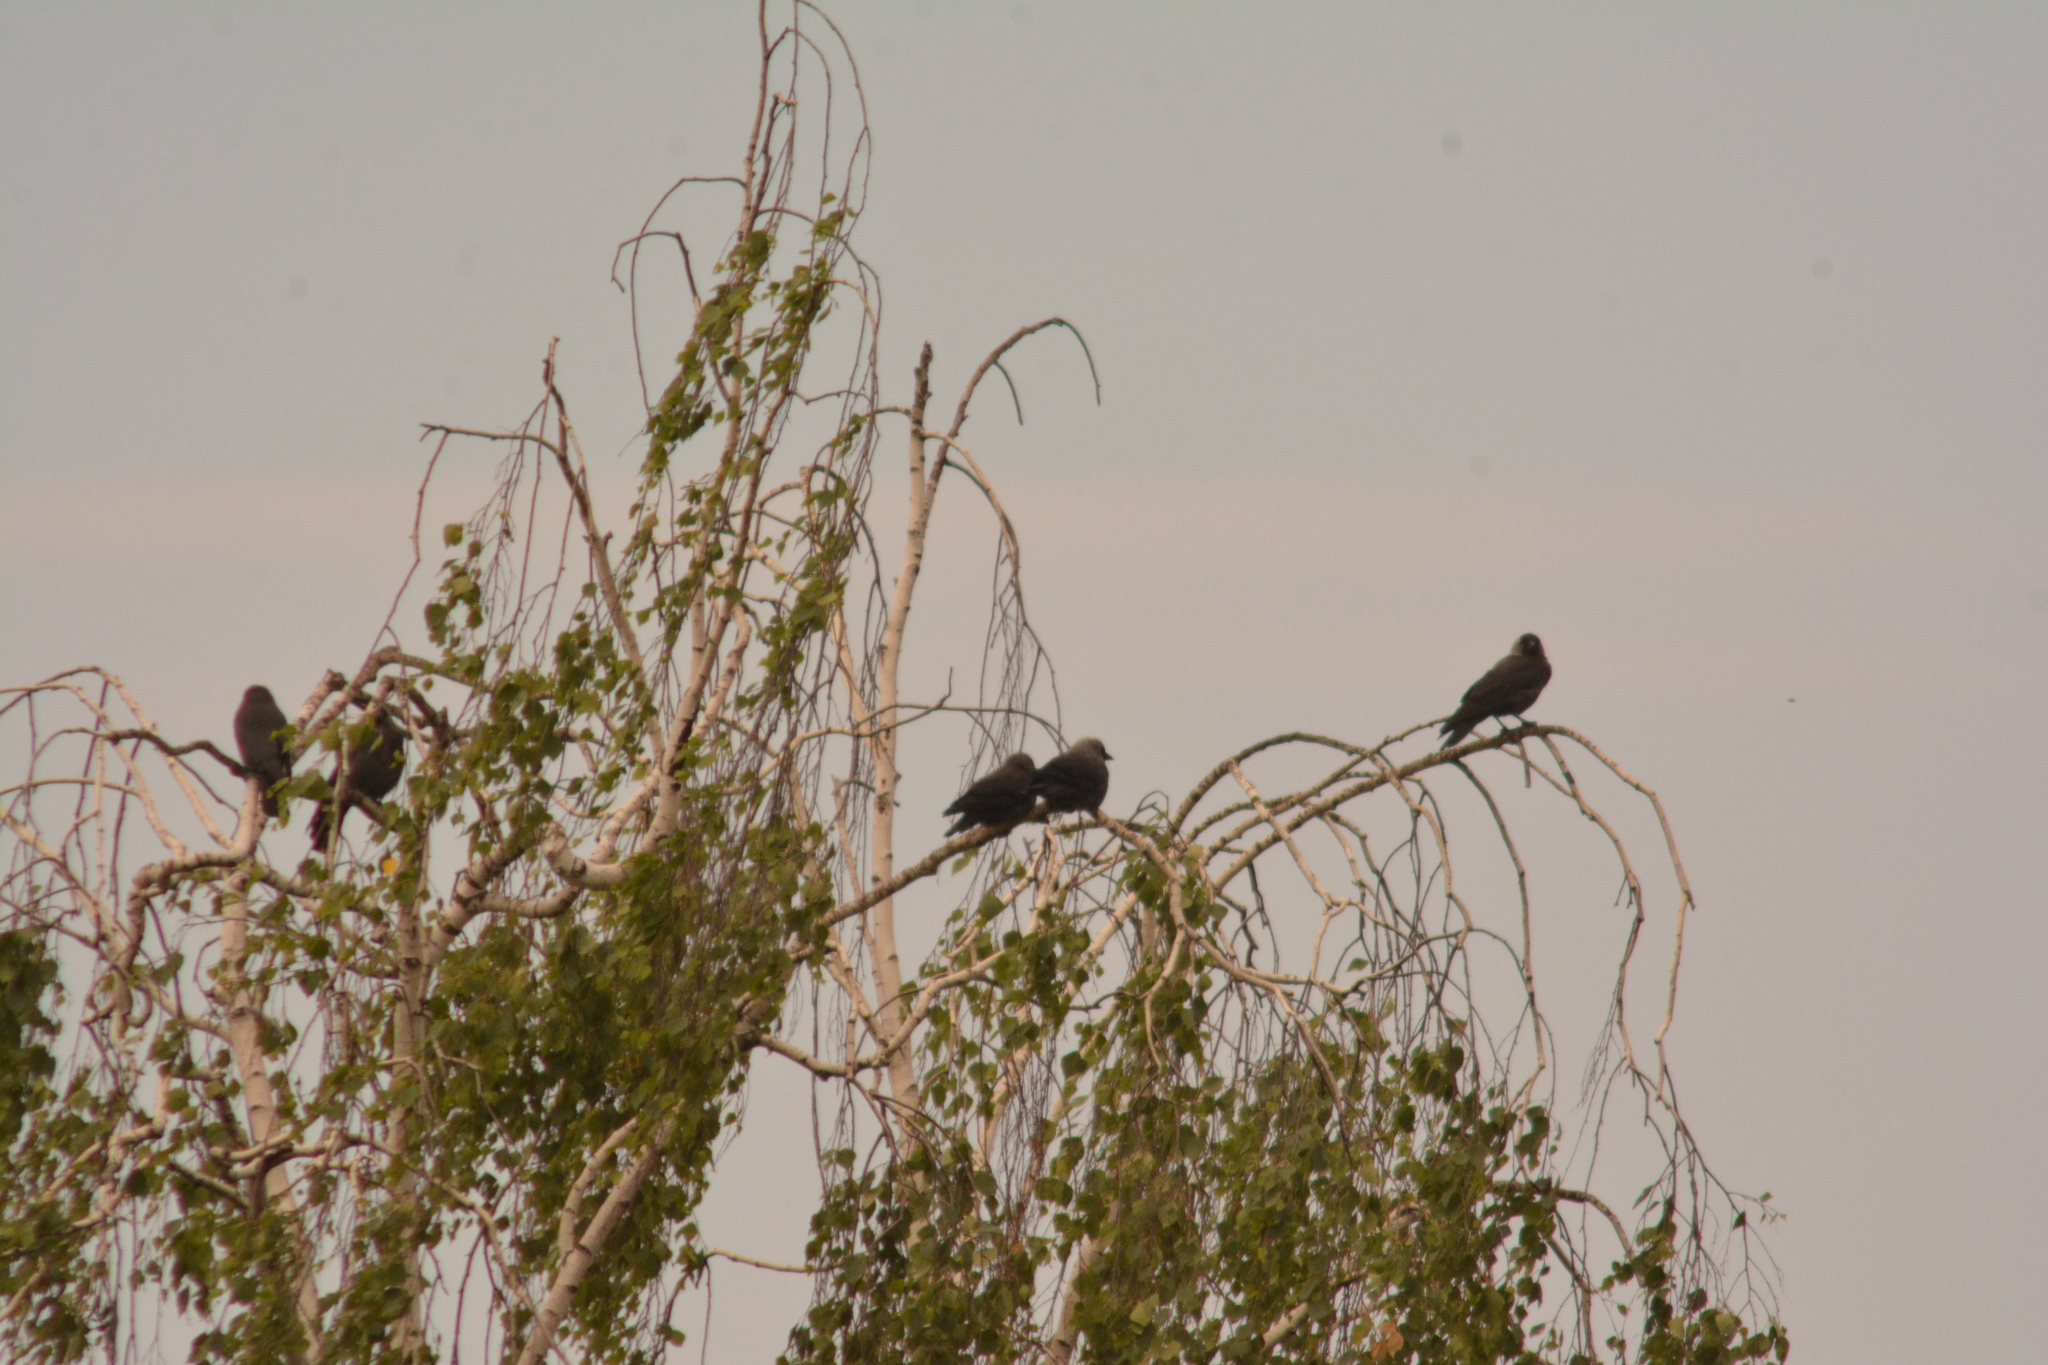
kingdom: Animalia
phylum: Chordata
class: Aves
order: Passeriformes
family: Corvidae
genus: Coloeus
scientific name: Coloeus monedula
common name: Western jackdaw
